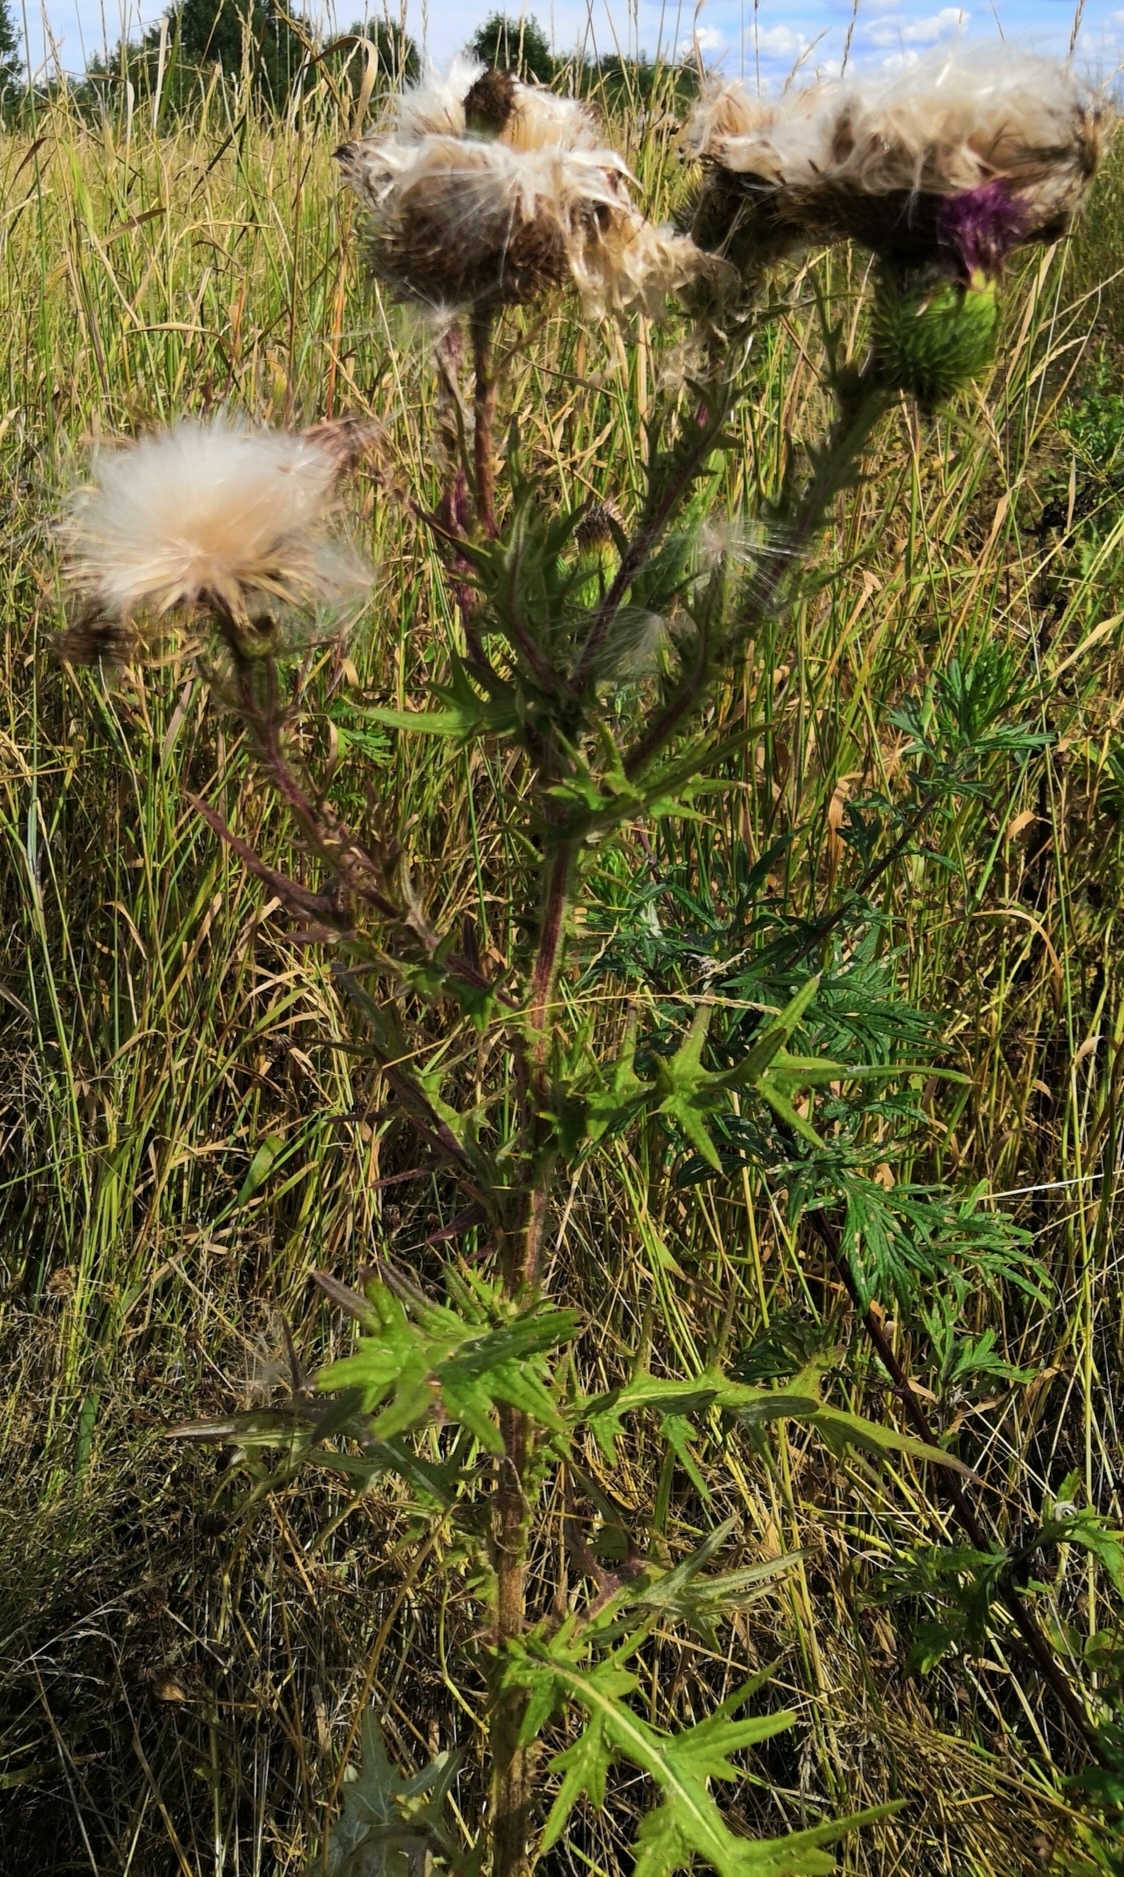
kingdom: Plantae
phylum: Tracheophyta
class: Magnoliopsida
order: Asterales
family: Asteraceae
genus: Cirsium
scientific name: Cirsium vulgare
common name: Bull thistle
